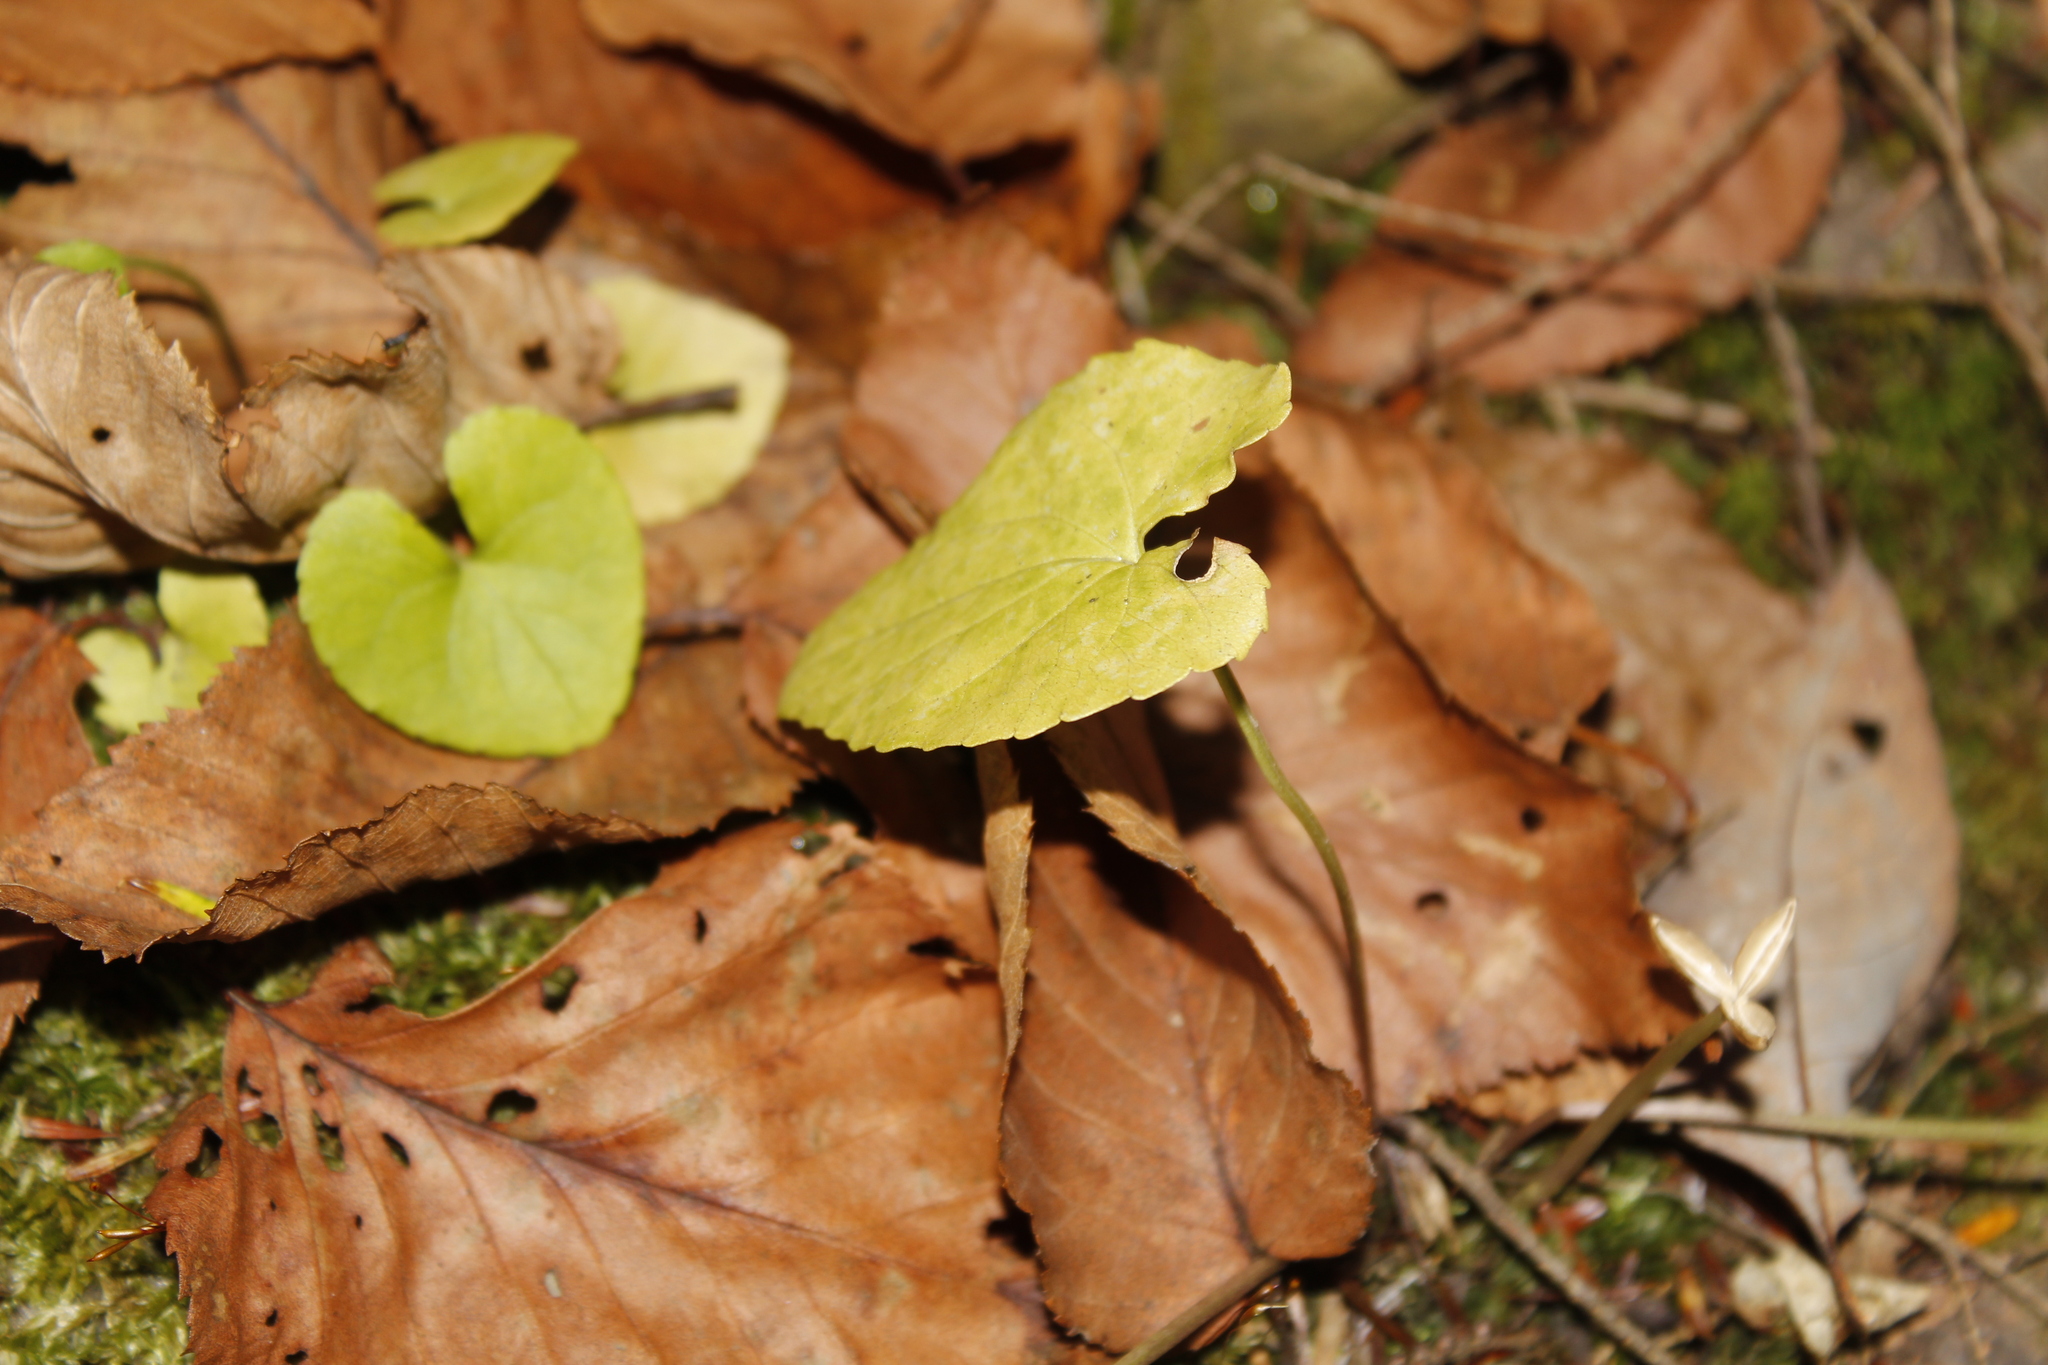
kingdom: Plantae
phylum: Tracheophyta
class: Magnoliopsida
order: Malpighiales
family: Violaceae
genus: Viola
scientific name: Viola
